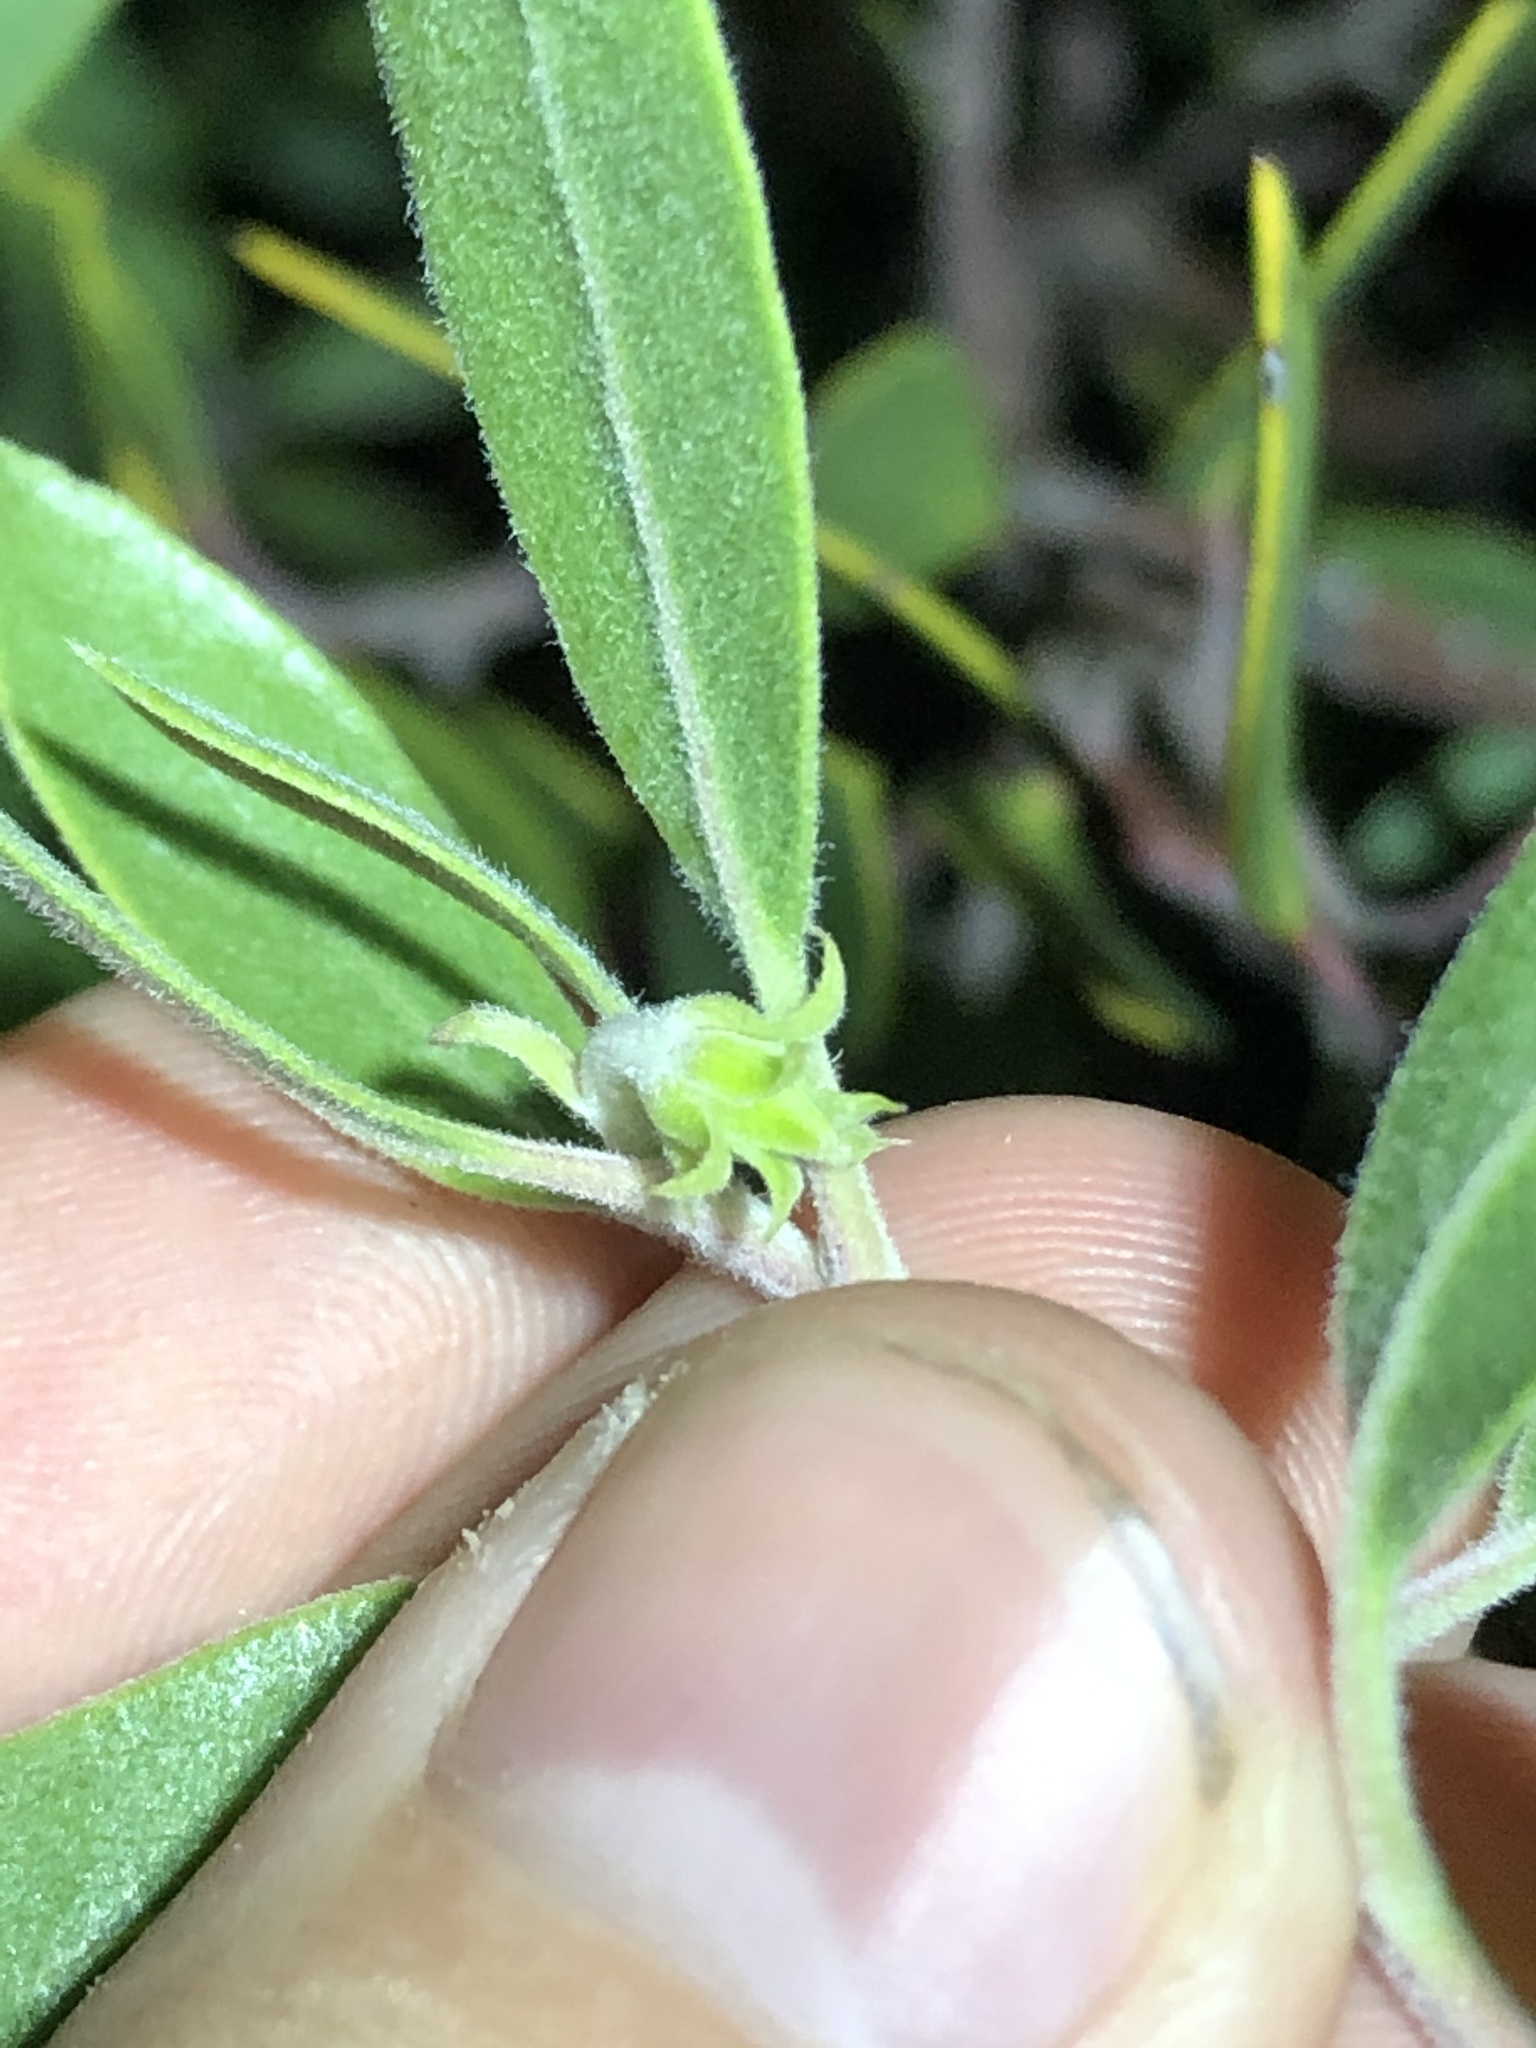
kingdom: Plantae
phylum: Tracheophyta
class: Magnoliopsida
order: Ericales
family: Ericaceae
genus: Arctostaphylos
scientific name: Arctostaphylos pungens
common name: Mexican manzanita
